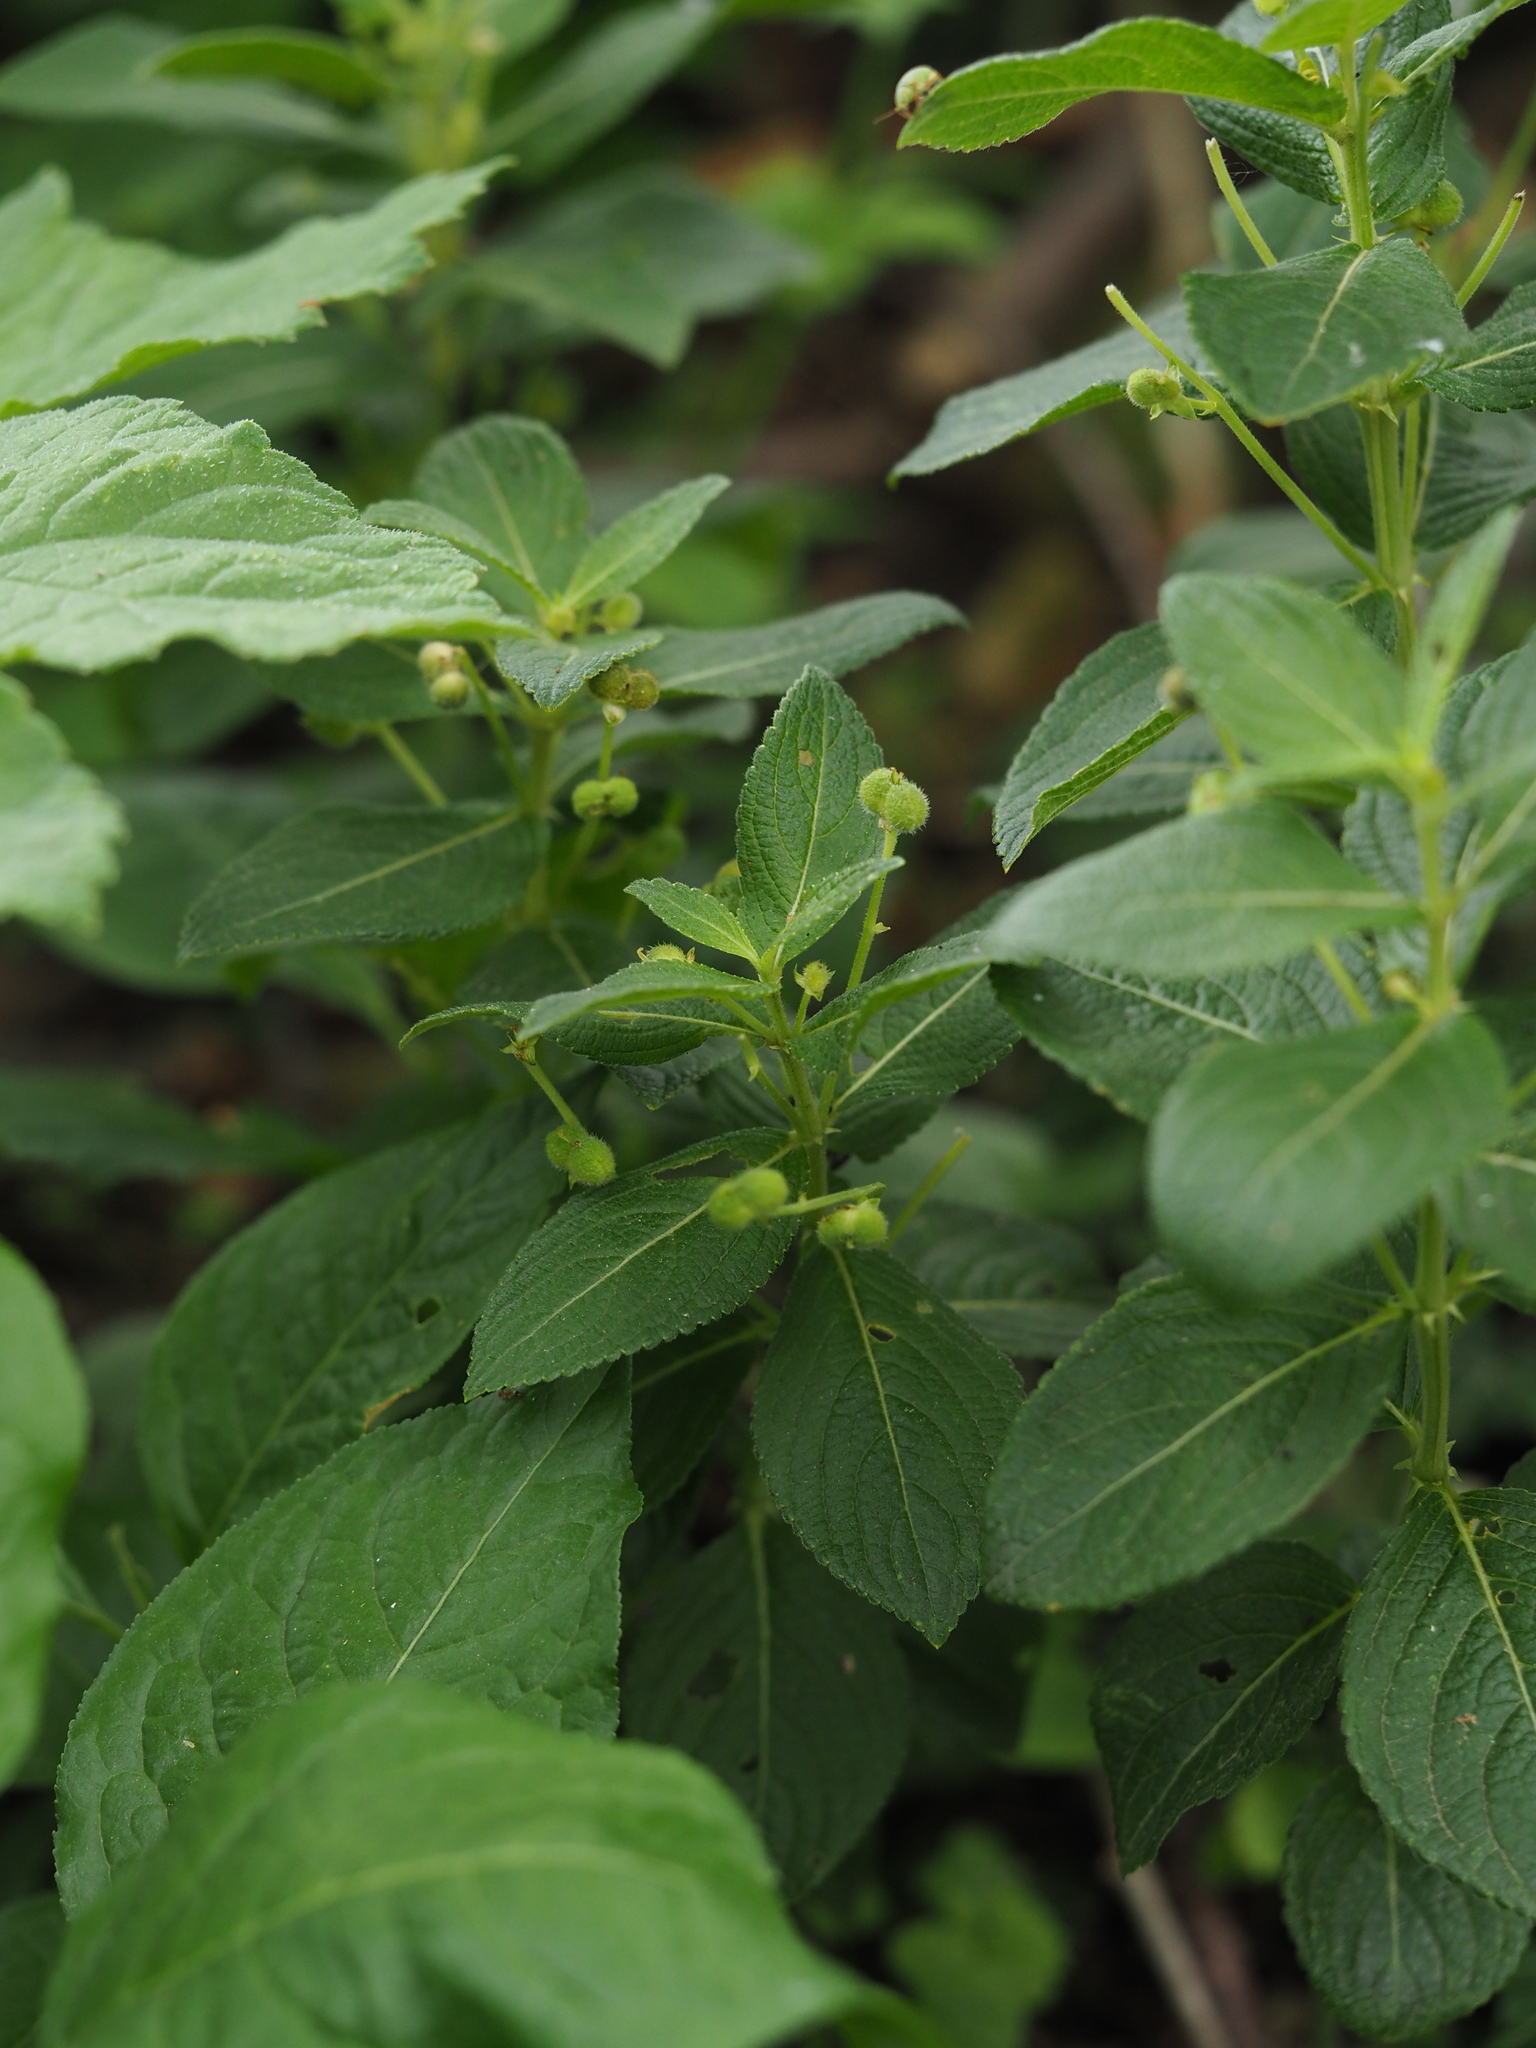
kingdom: Plantae
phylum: Tracheophyta
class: Magnoliopsida
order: Malpighiales
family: Euphorbiaceae
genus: Mercurialis
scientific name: Mercurialis perennis
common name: Dog mercury
